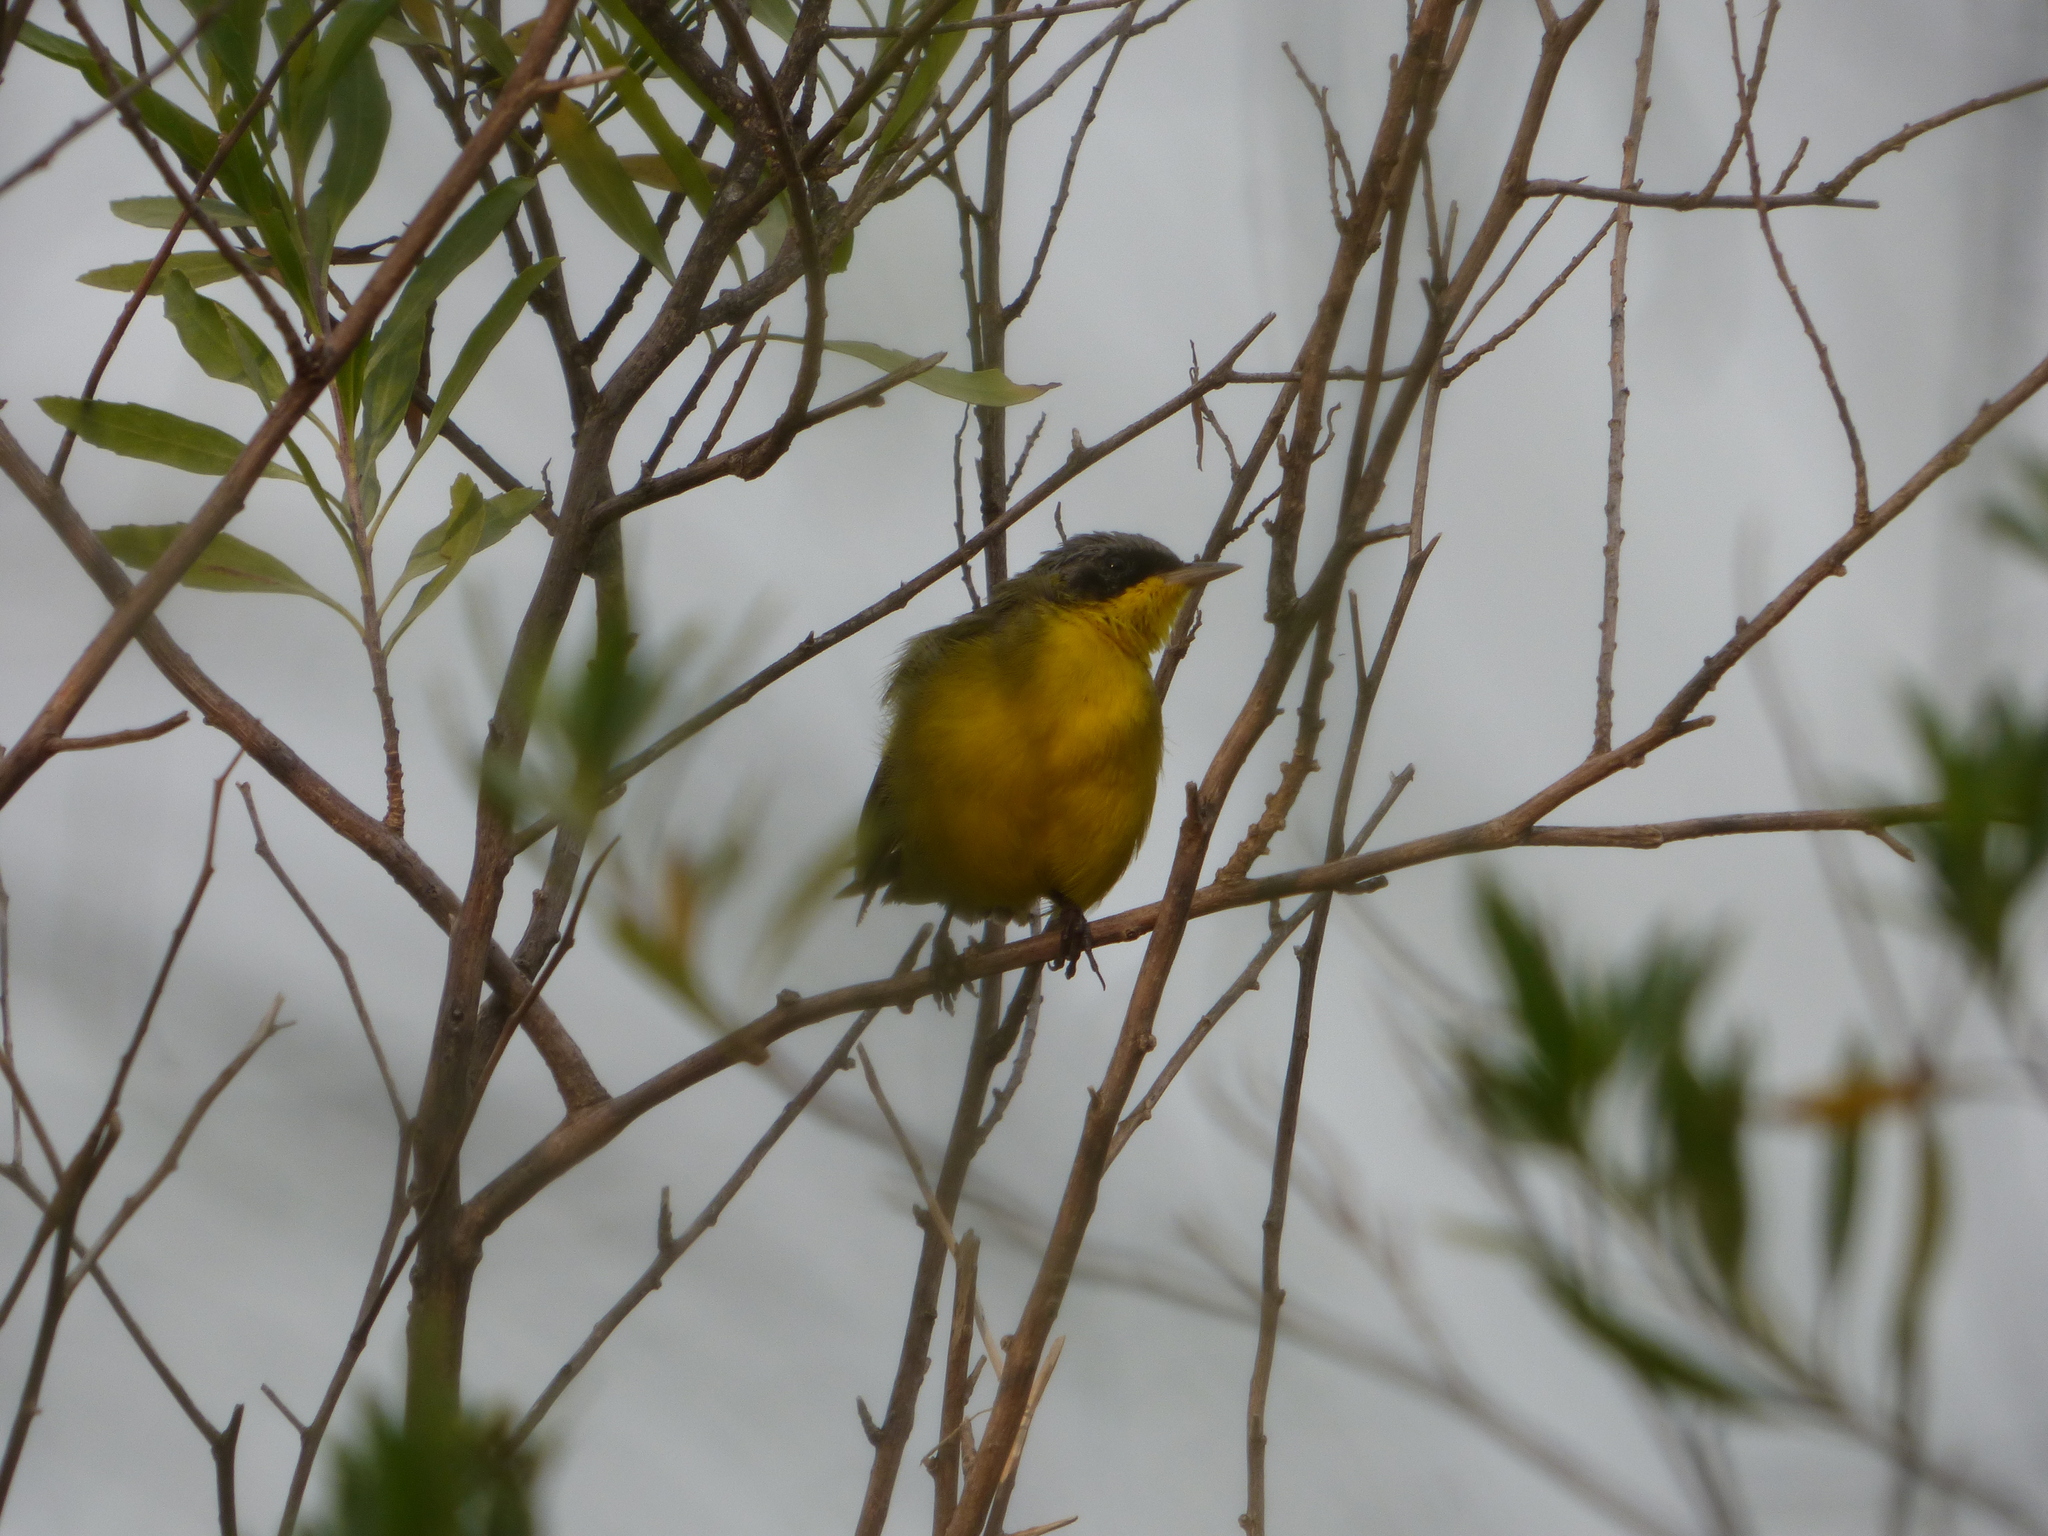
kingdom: Animalia
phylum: Chordata
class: Aves
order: Passeriformes
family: Parulidae
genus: Geothlypis
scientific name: Geothlypis velata
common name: Southern yellowthroat
